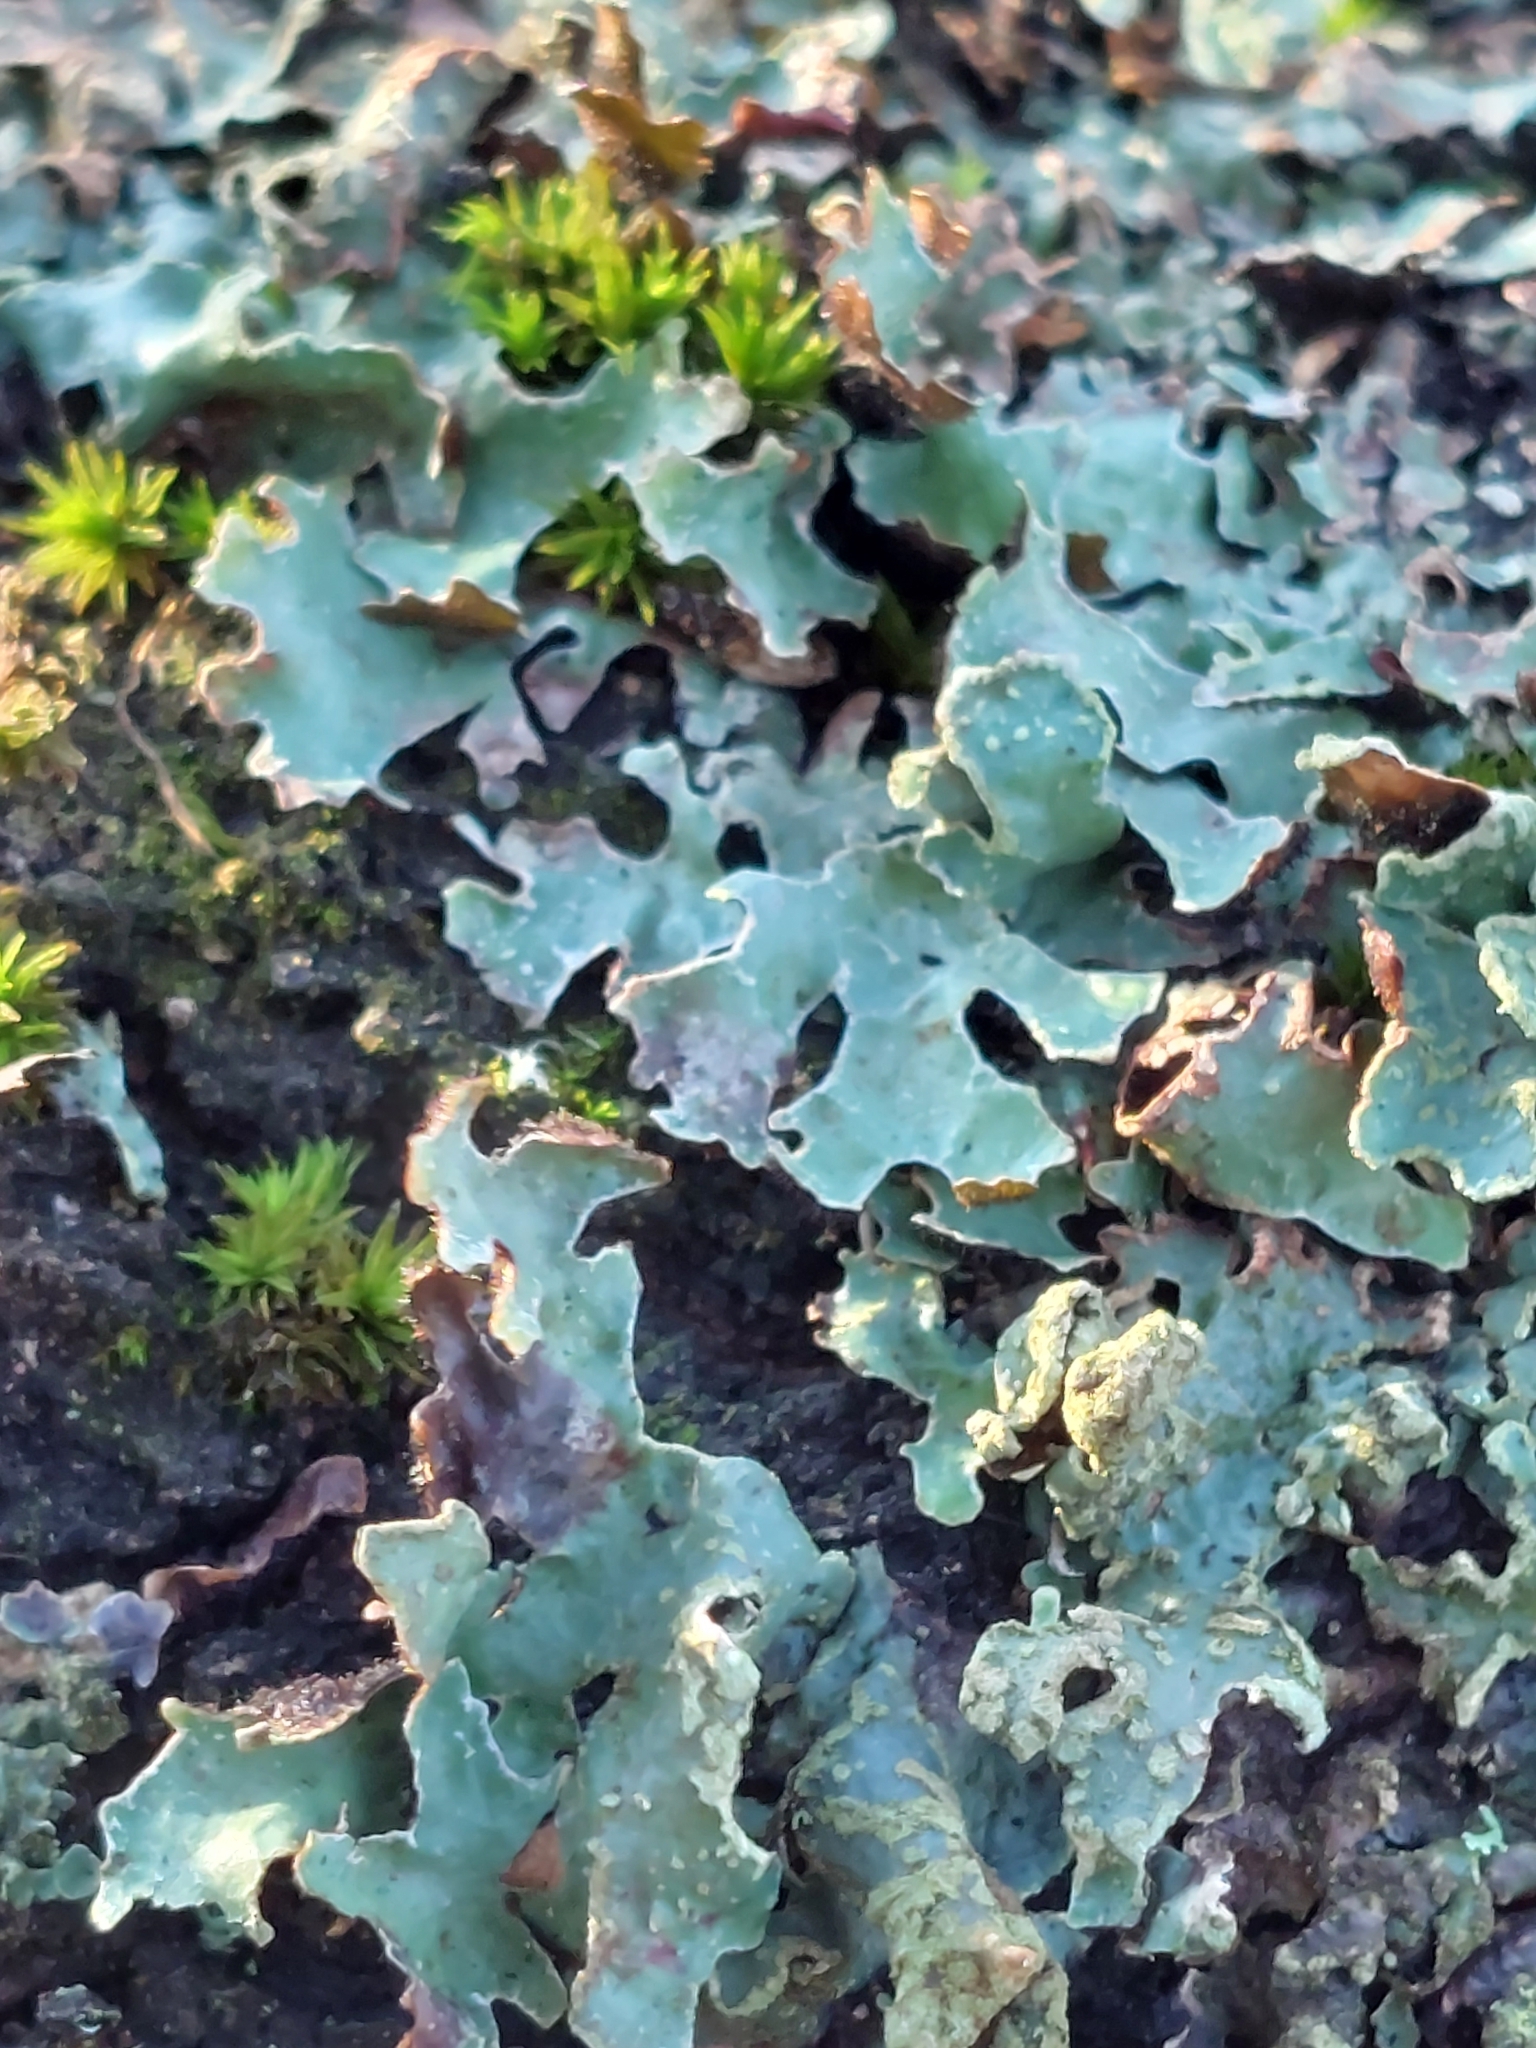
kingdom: Fungi
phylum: Ascomycota
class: Lecanoromycetes
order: Lecanorales
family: Parmeliaceae
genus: Parmelia
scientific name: Parmelia sulcata
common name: Netted shield lichen
